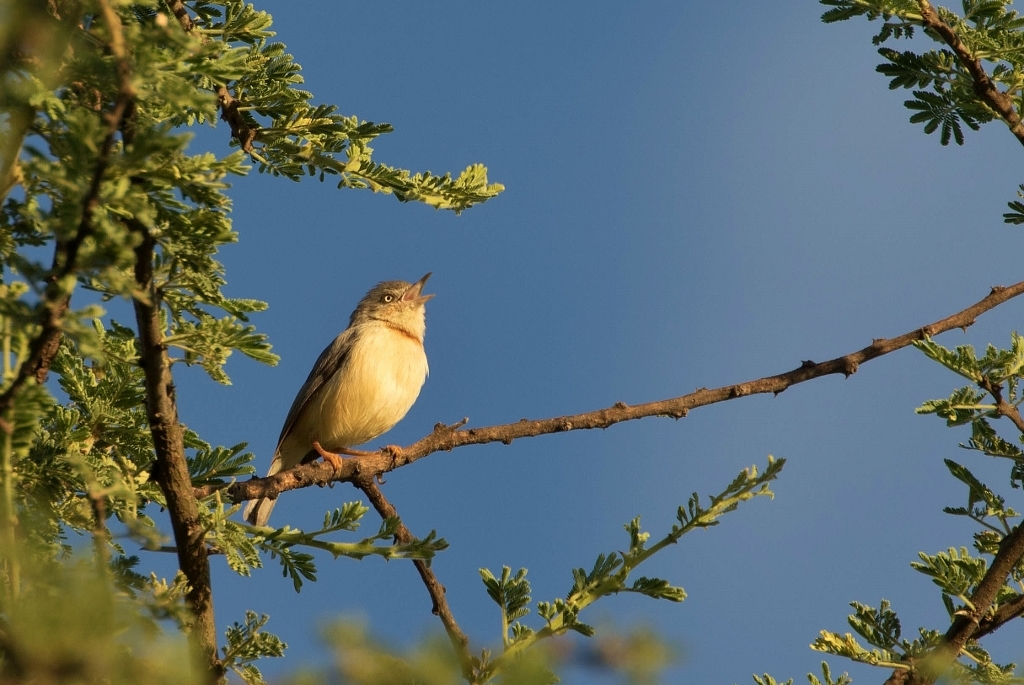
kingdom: Animalia
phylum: Chordata
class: Aves
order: Passeriformes
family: Cisticolidae
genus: Eremomela
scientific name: Eremomela usticollis
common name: Burnt-neck eremomela
